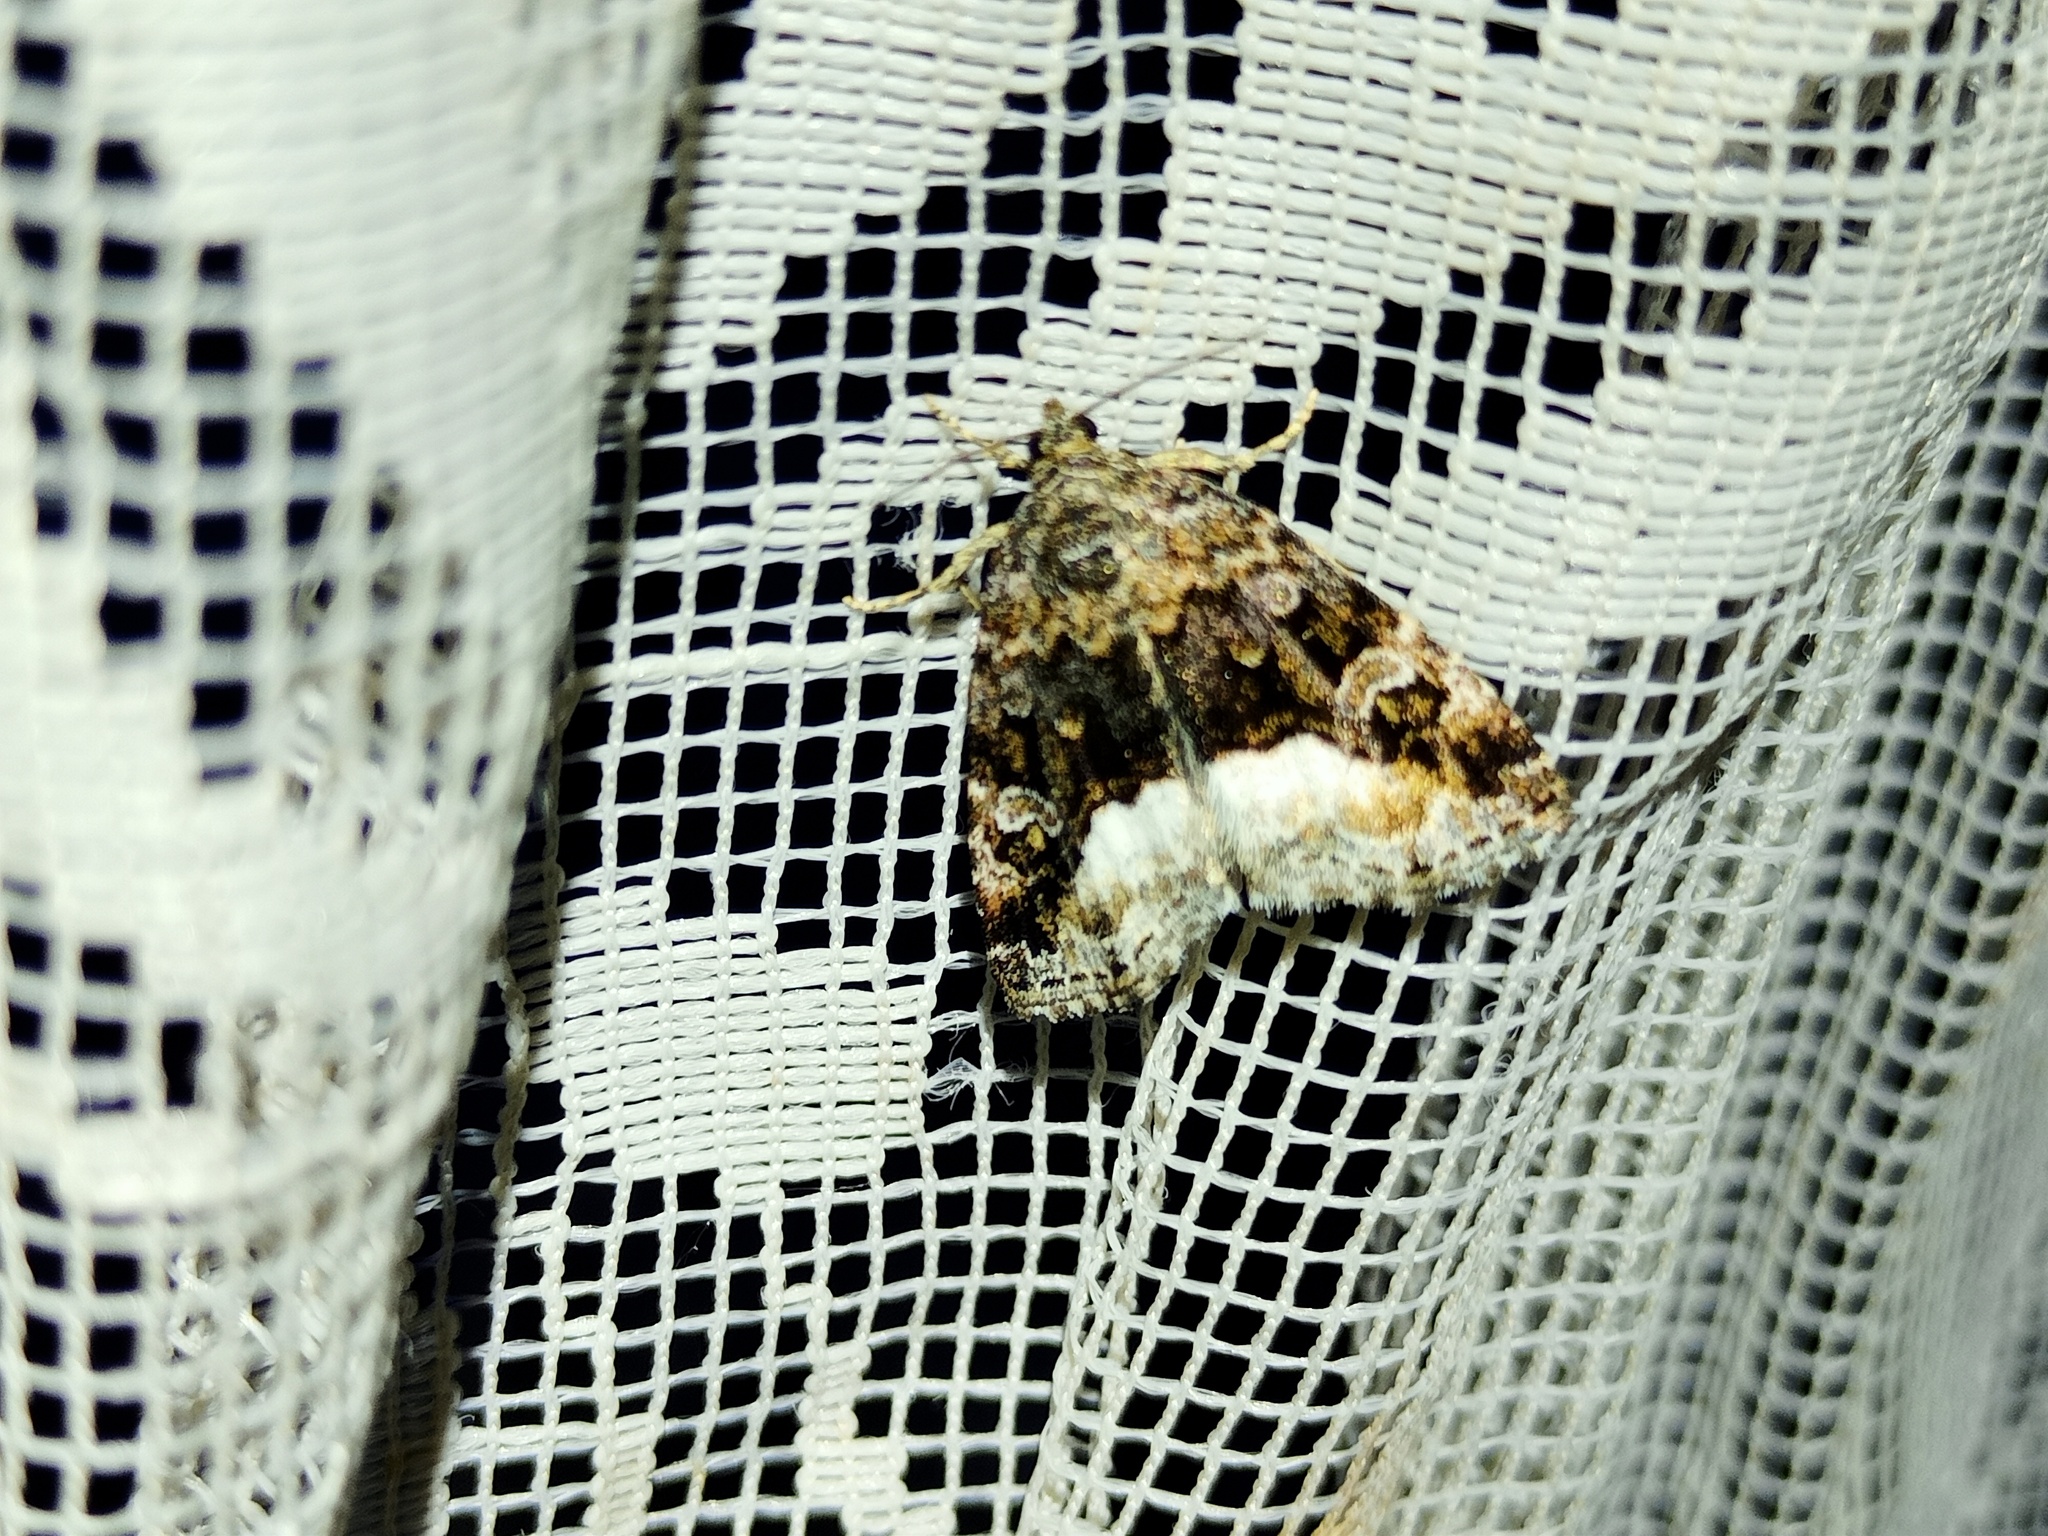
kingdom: Animalia
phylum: Arthropoda
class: Insecta
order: Lepidoptera
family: Noctuidae
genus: Deltote
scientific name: Deltote pygarga
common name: Marbled white spot
